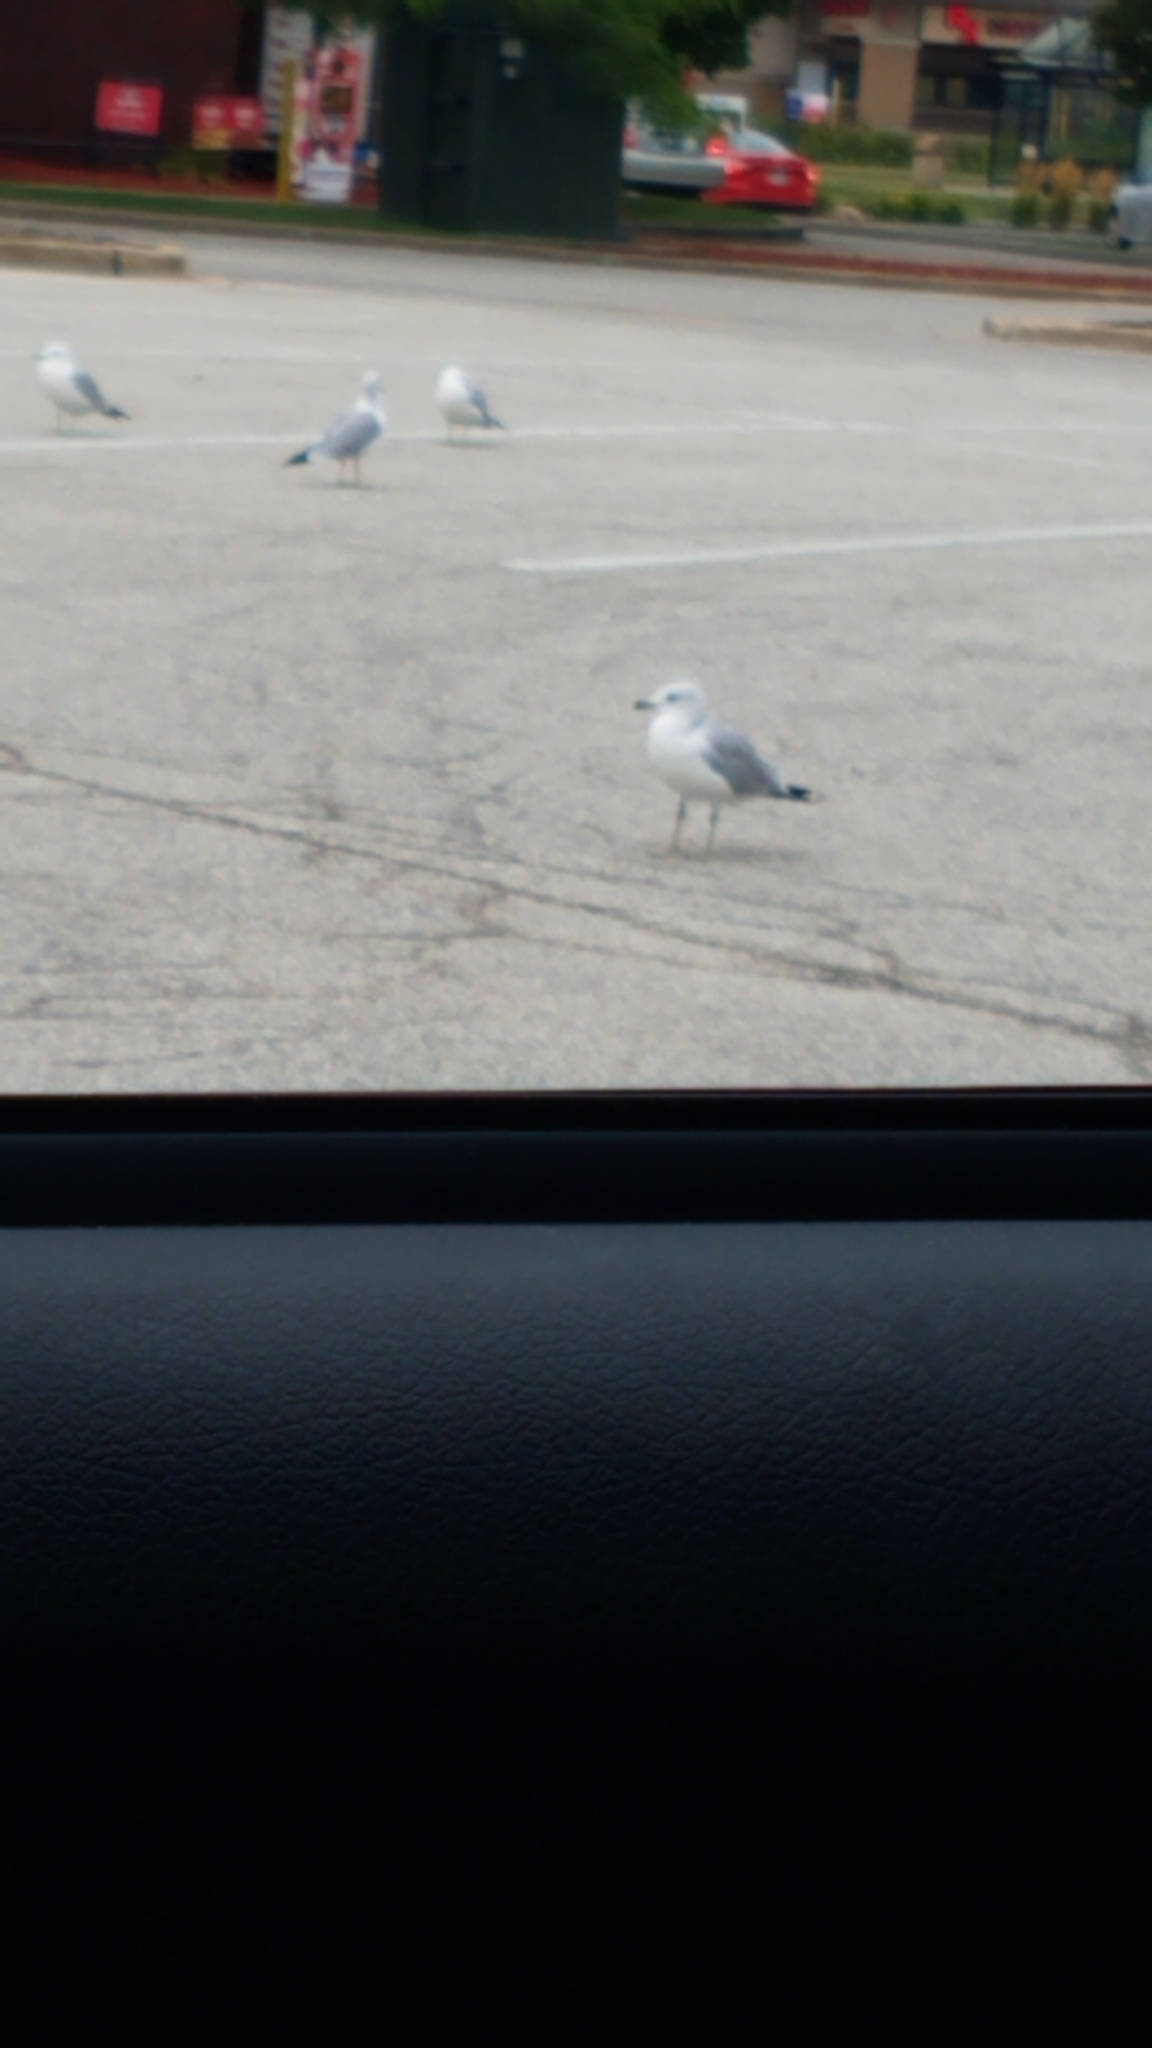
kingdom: Animalia
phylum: Chordata
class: Aves
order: Charadriiformes
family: Laridae
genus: Larus
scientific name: Larus delawarensis
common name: Ring-billed gull
